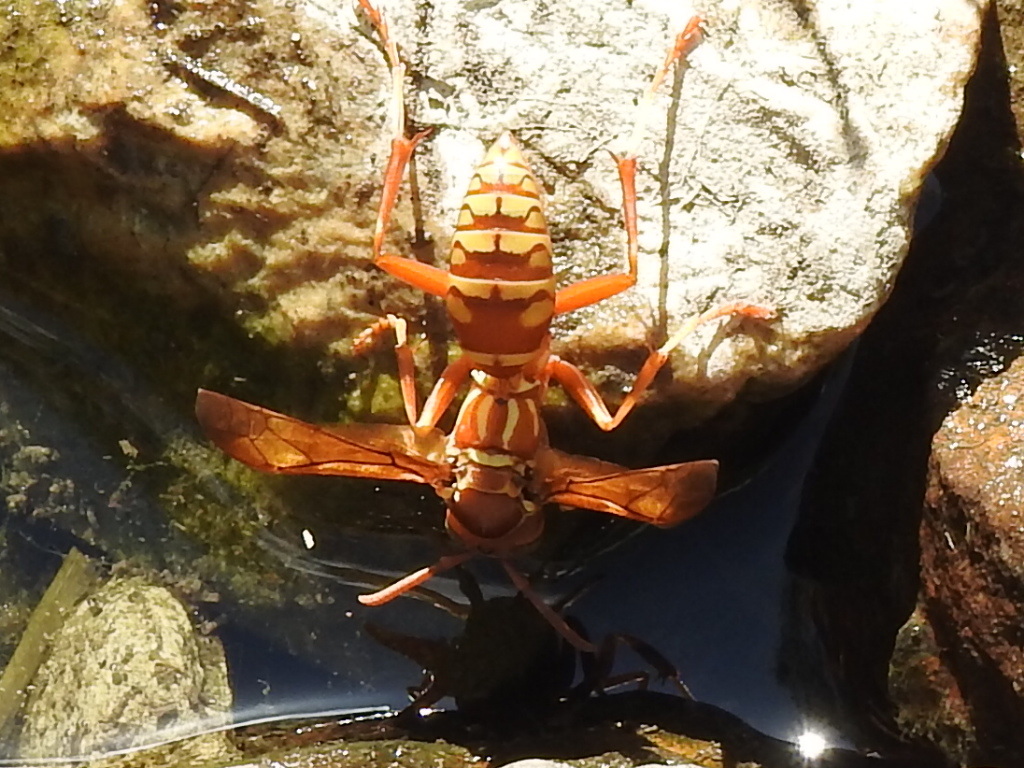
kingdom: Animalia
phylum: Arthropoda
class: Insecta
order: Hymenoptera
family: Eumenidae
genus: Polistes
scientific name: Polistes apachus
